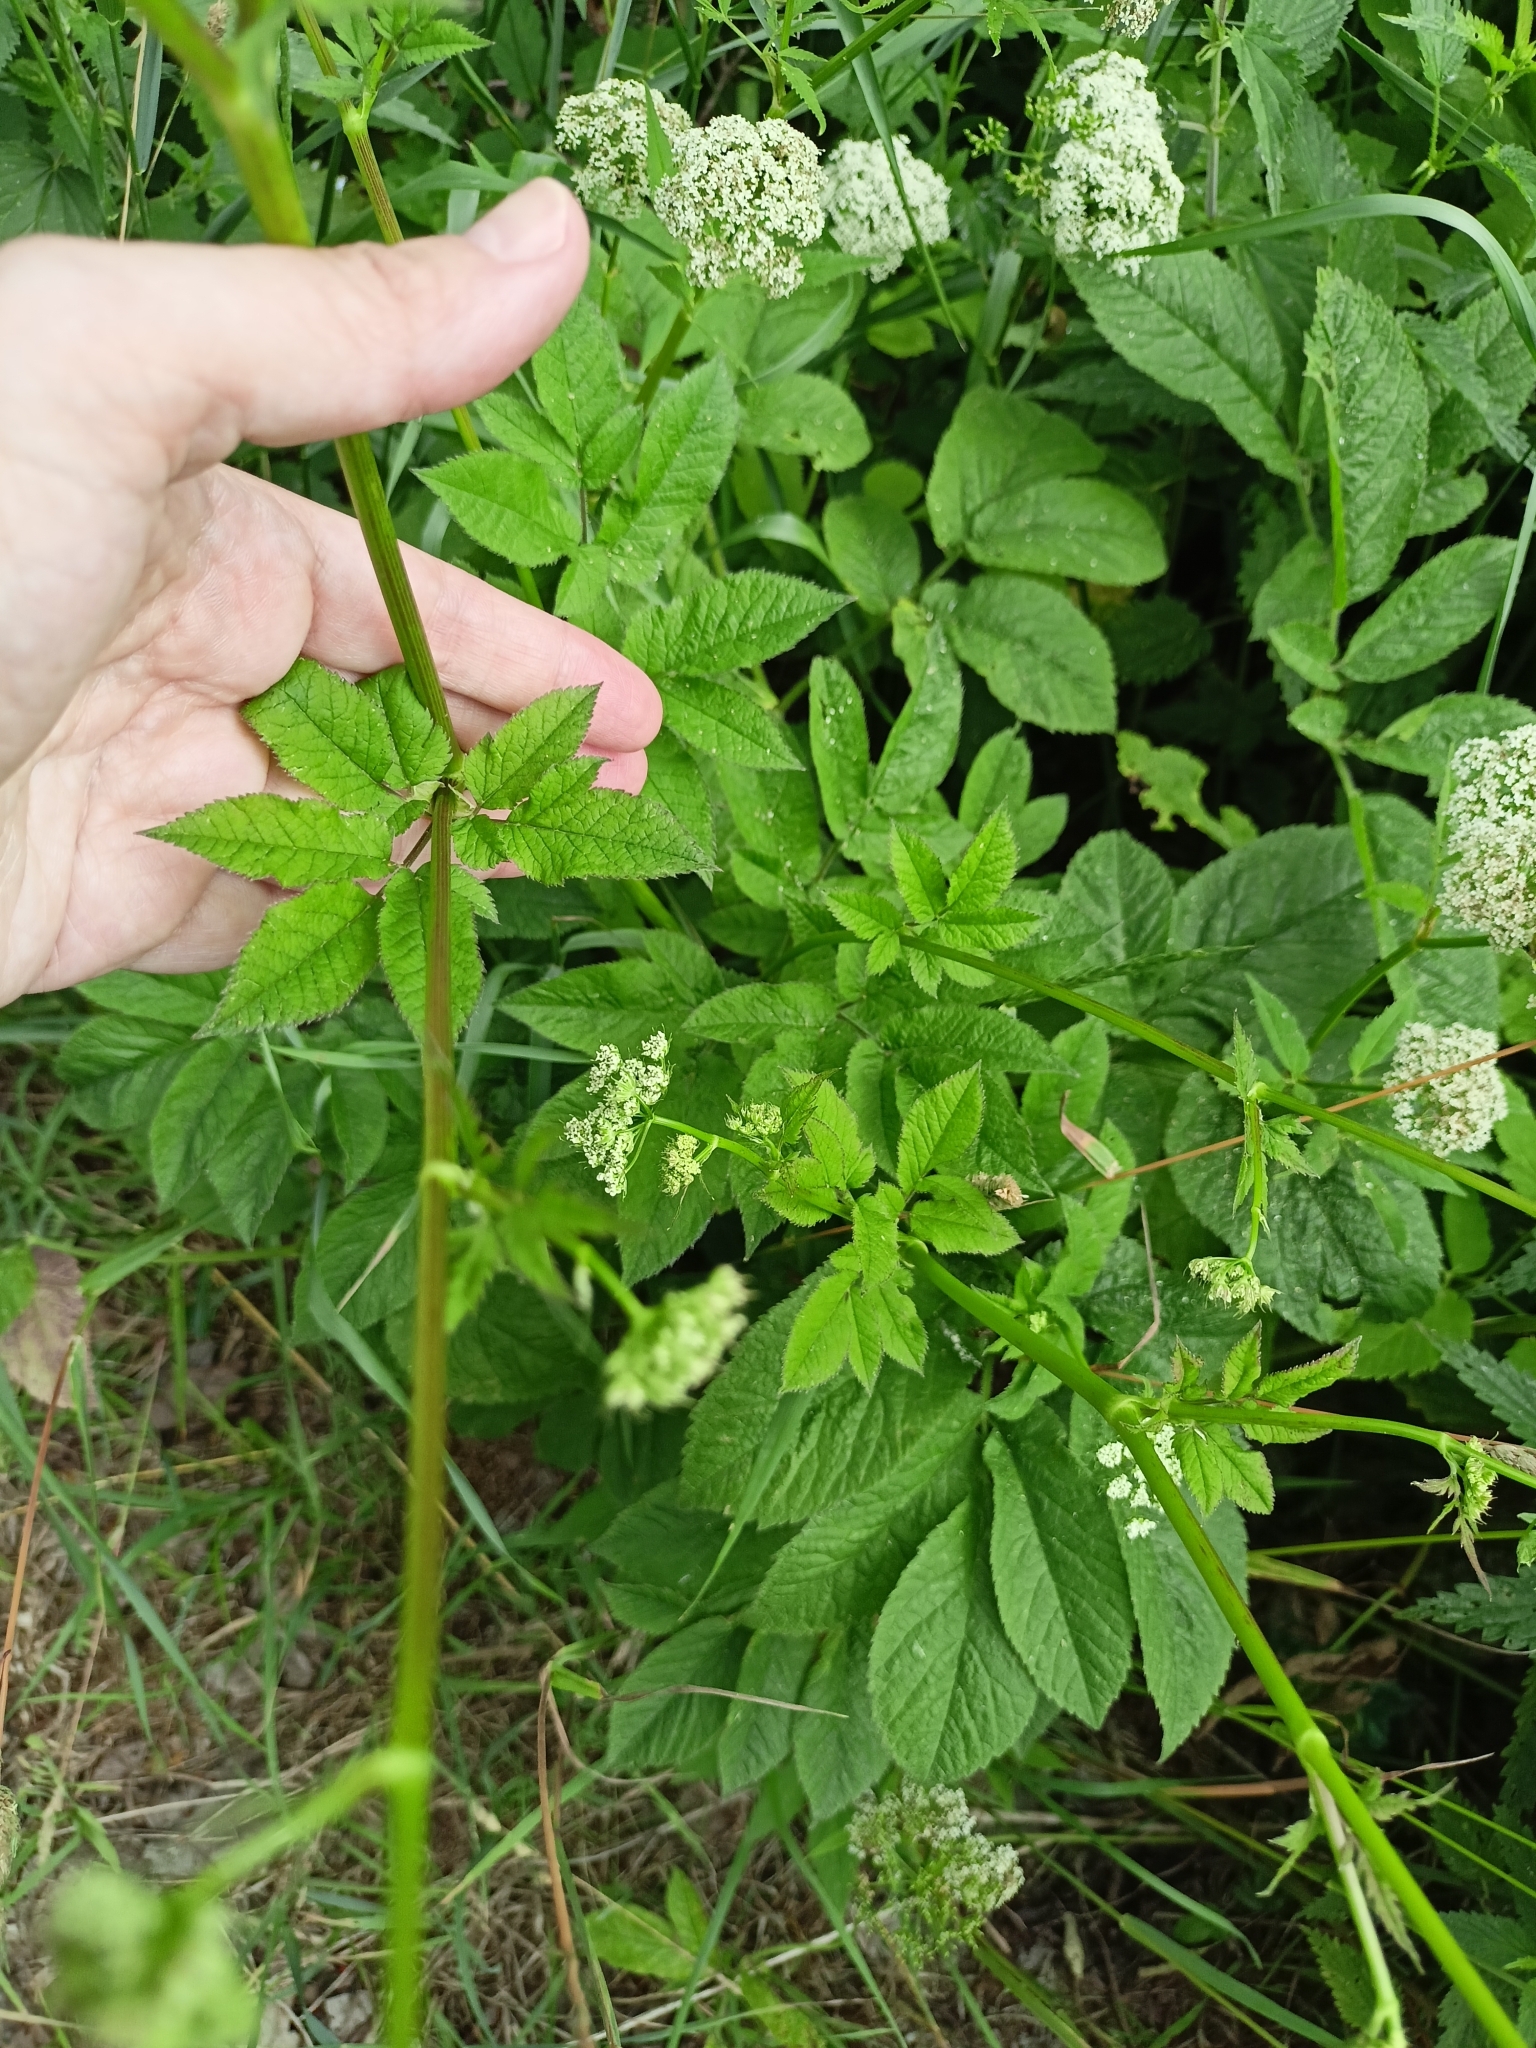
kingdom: Plantae
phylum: Tracheophyta
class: Magnoliopsida
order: Apiales
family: Apiaceae
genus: Chaerophyllum
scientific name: Chaerophyllum aromaticum
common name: Broadleaf chervil
